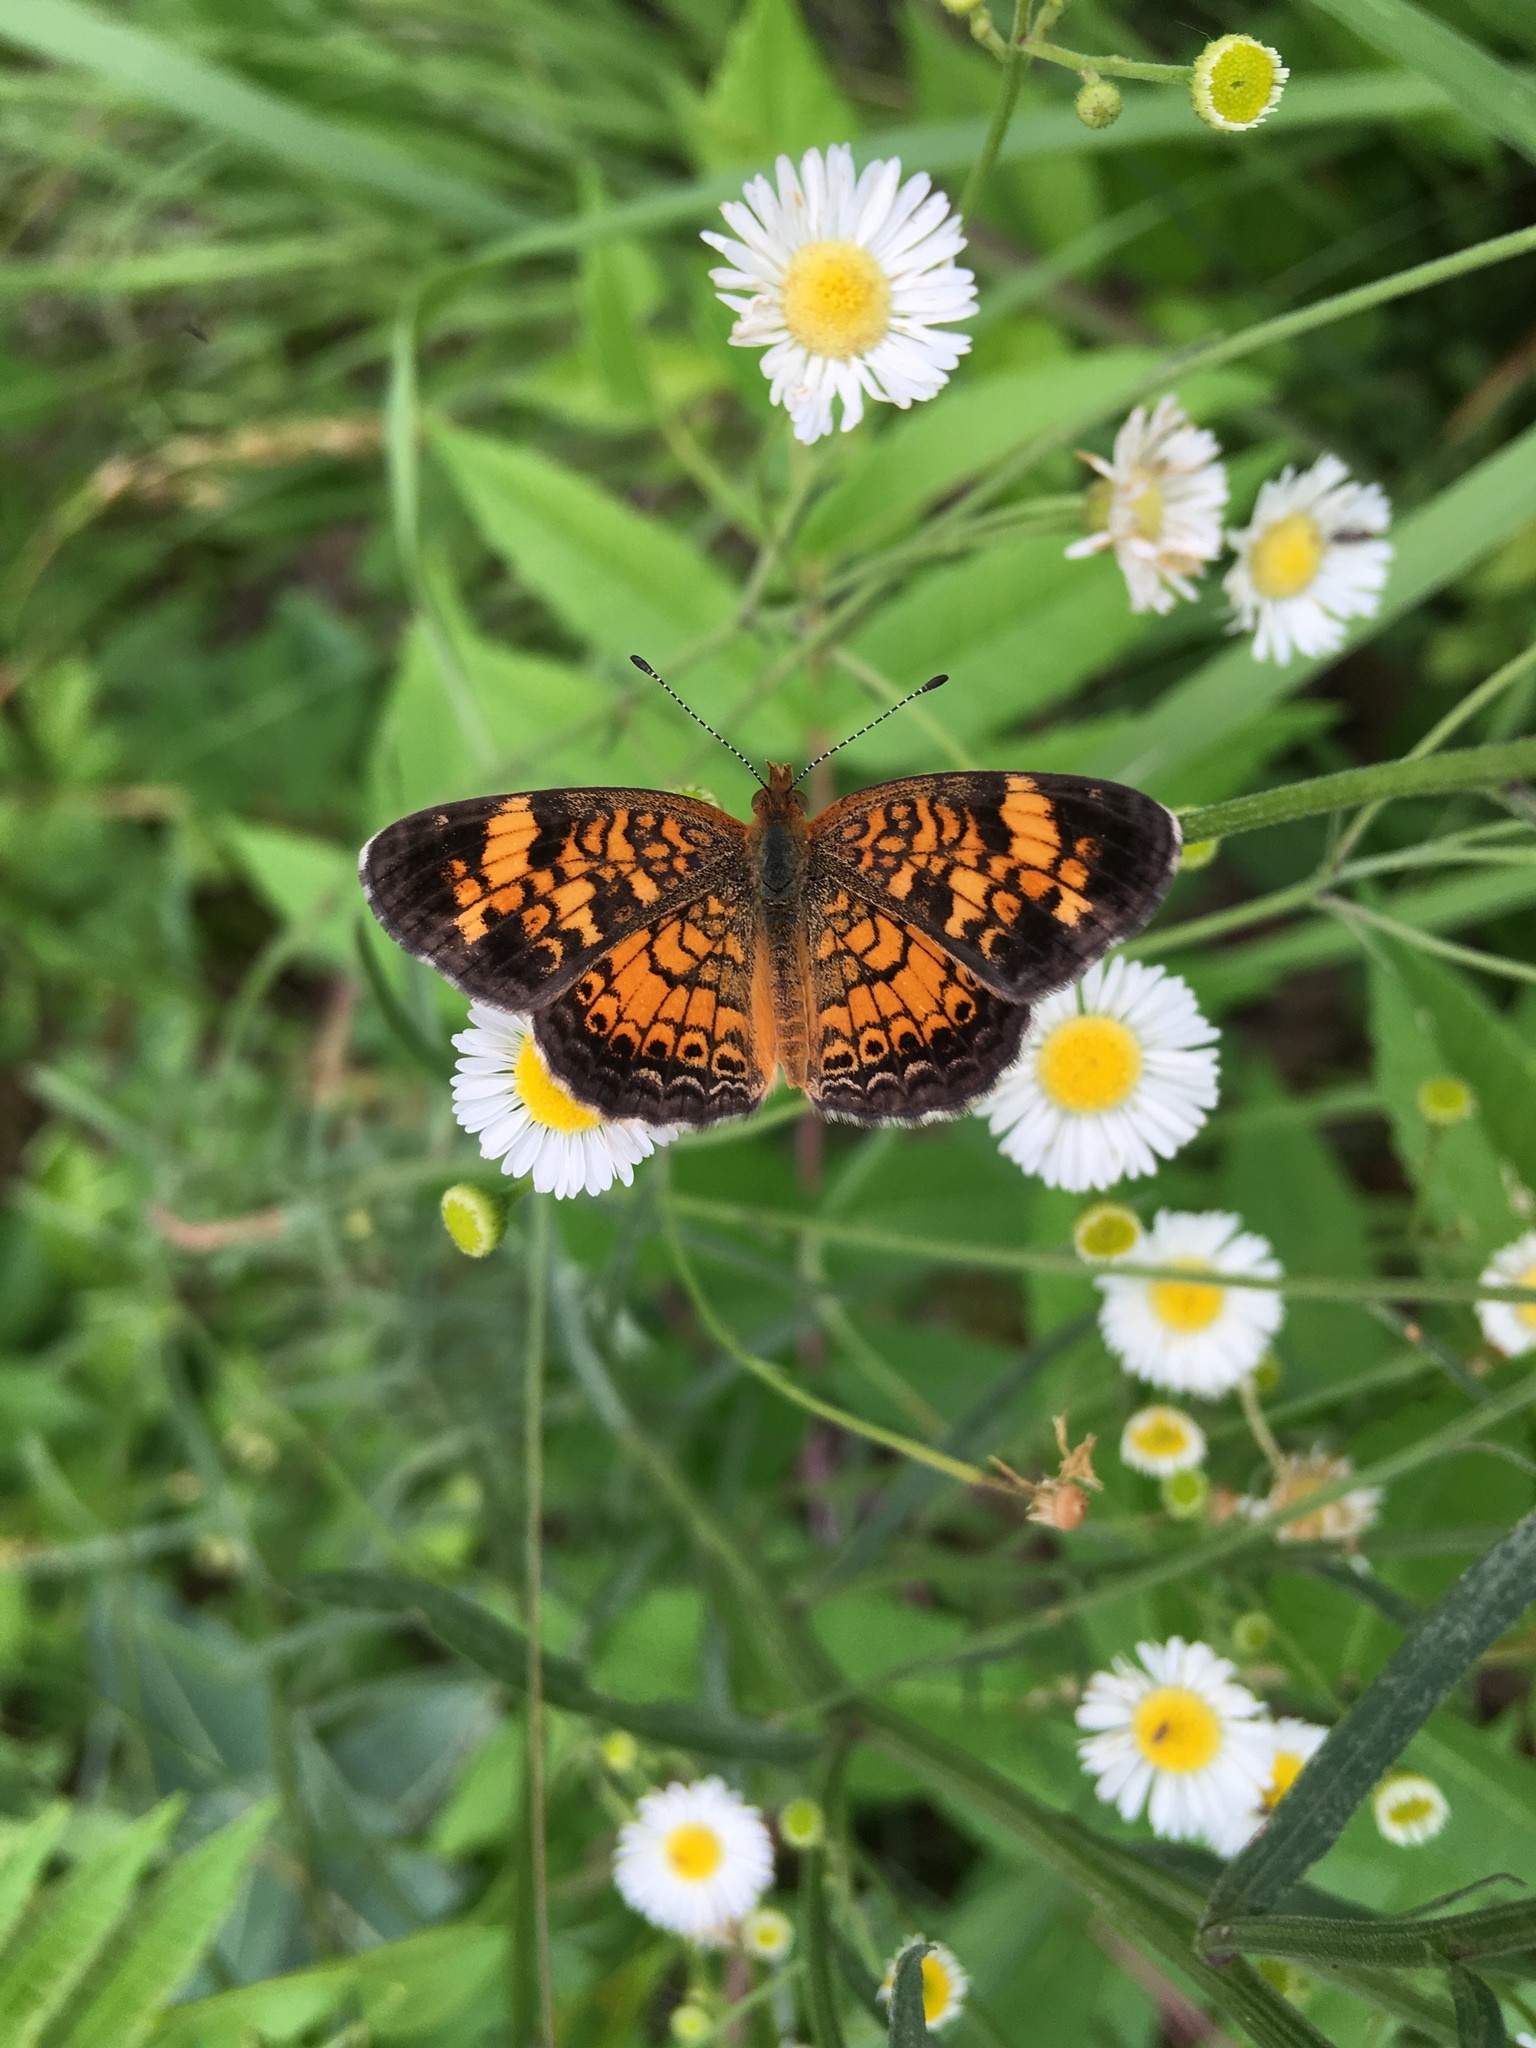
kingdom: Animalia
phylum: Arthropoda
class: Insecta
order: Lepidoptera
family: Nymphalidae
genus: Phyciodes
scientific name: Phyciodes tharos
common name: Pearl crescent
